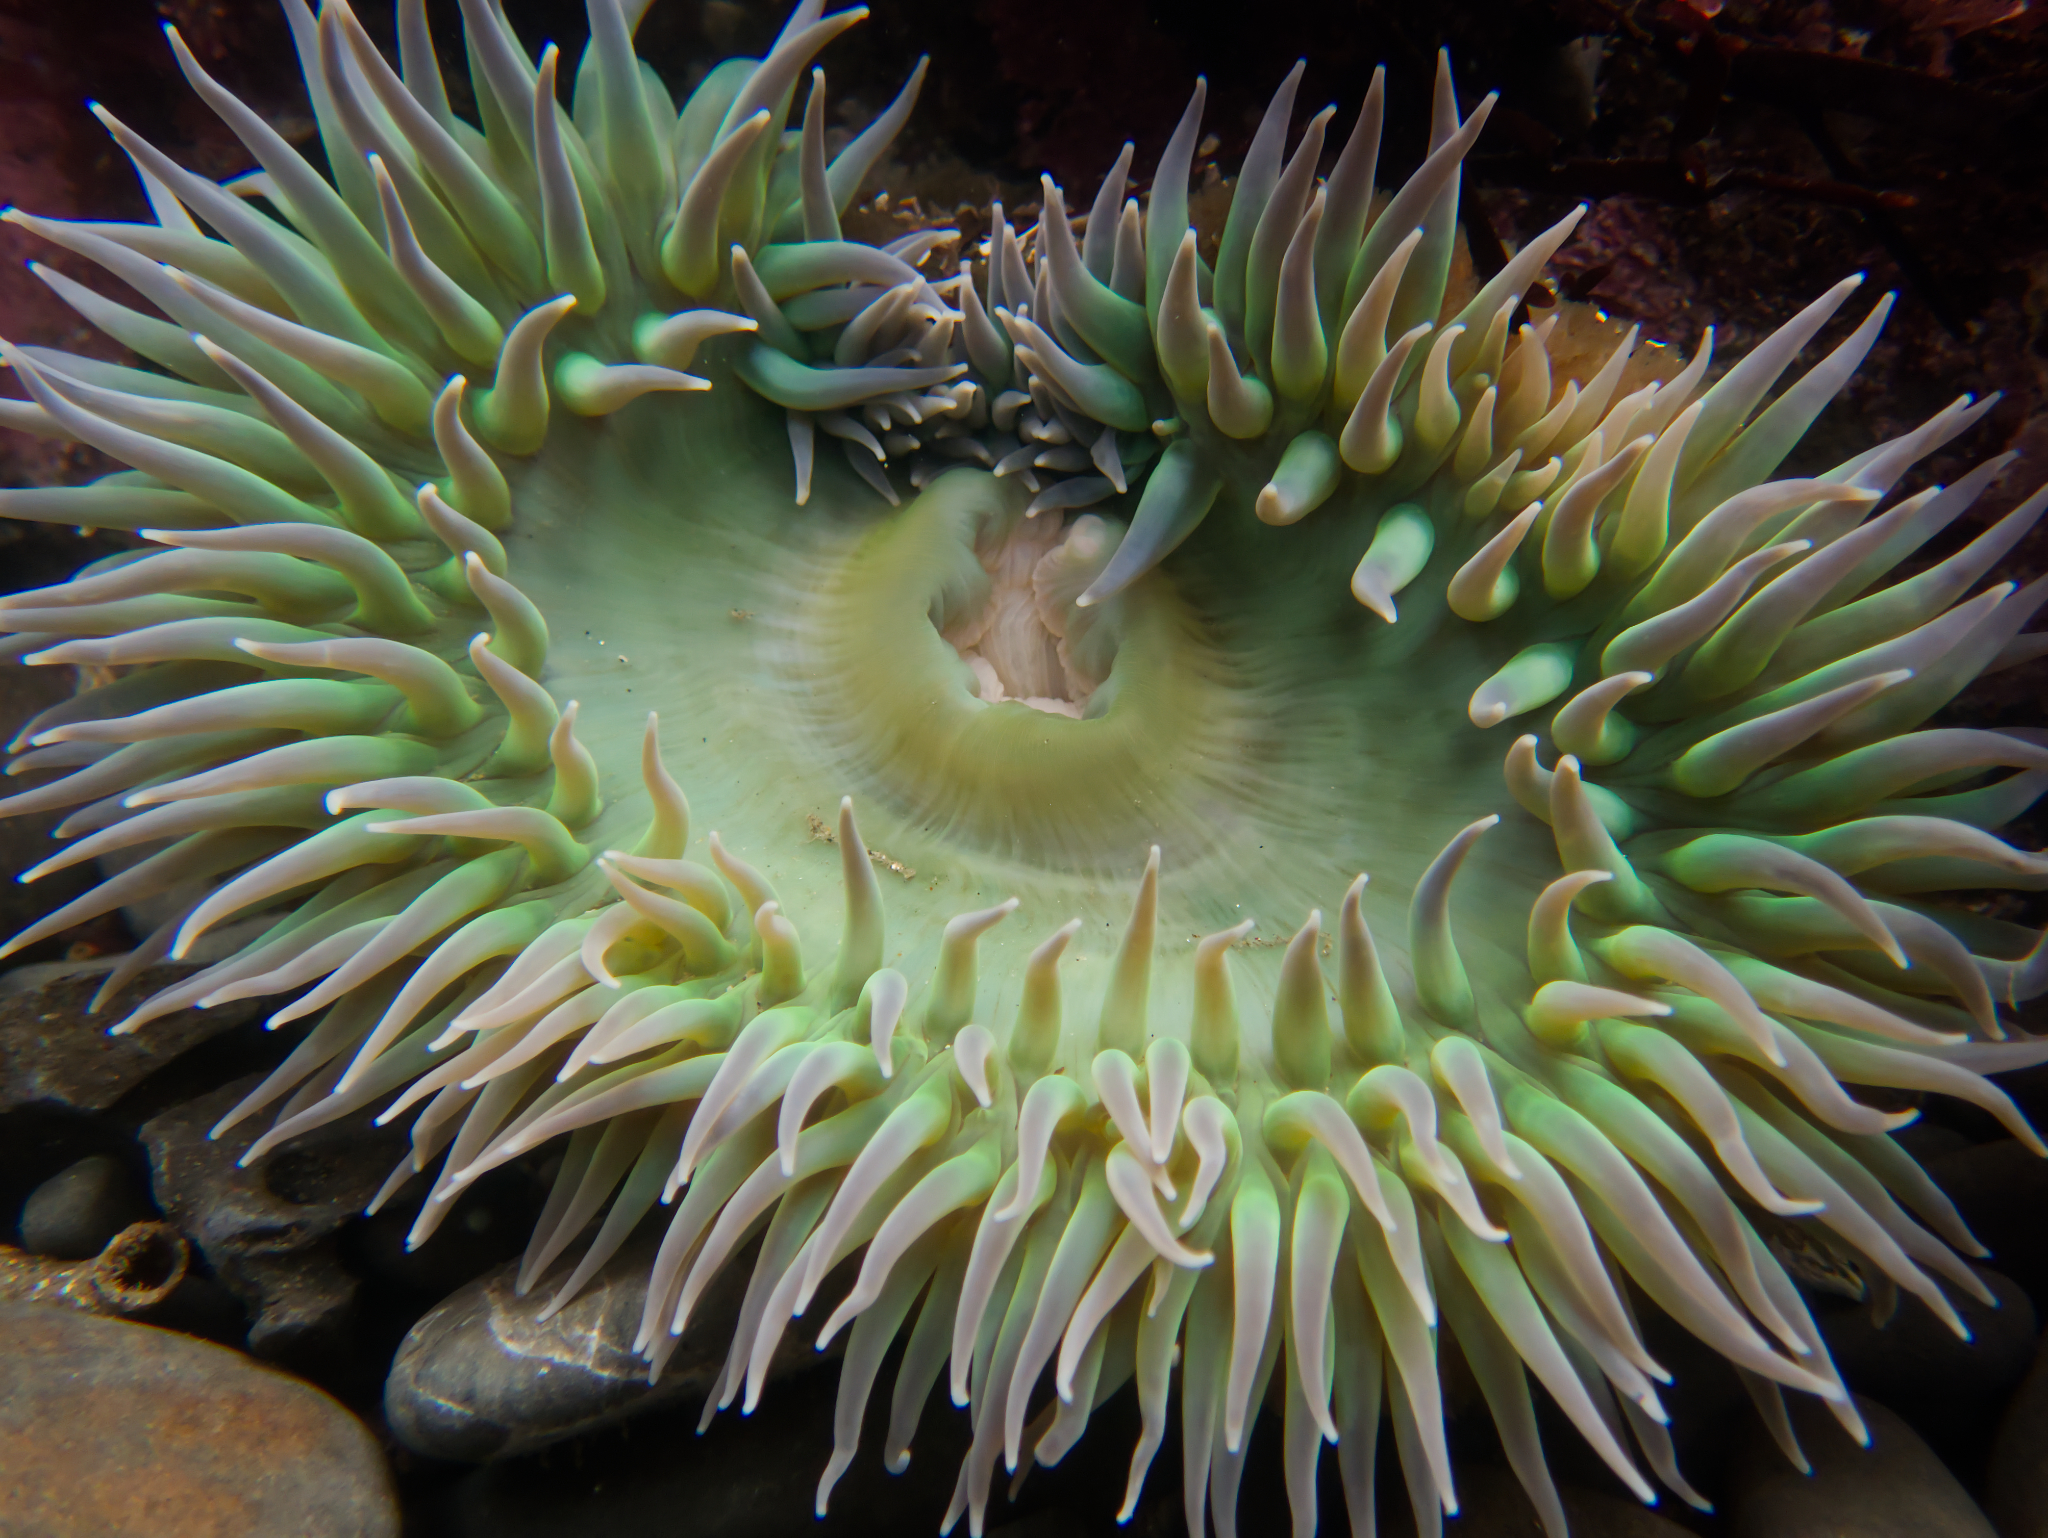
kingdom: Animalia
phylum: Cnidaria
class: Anthozoa
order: Actiniaria
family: Actiniidae
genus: Anthopleura
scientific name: Anthopleura xanthogrammica
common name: Giant green anemone
